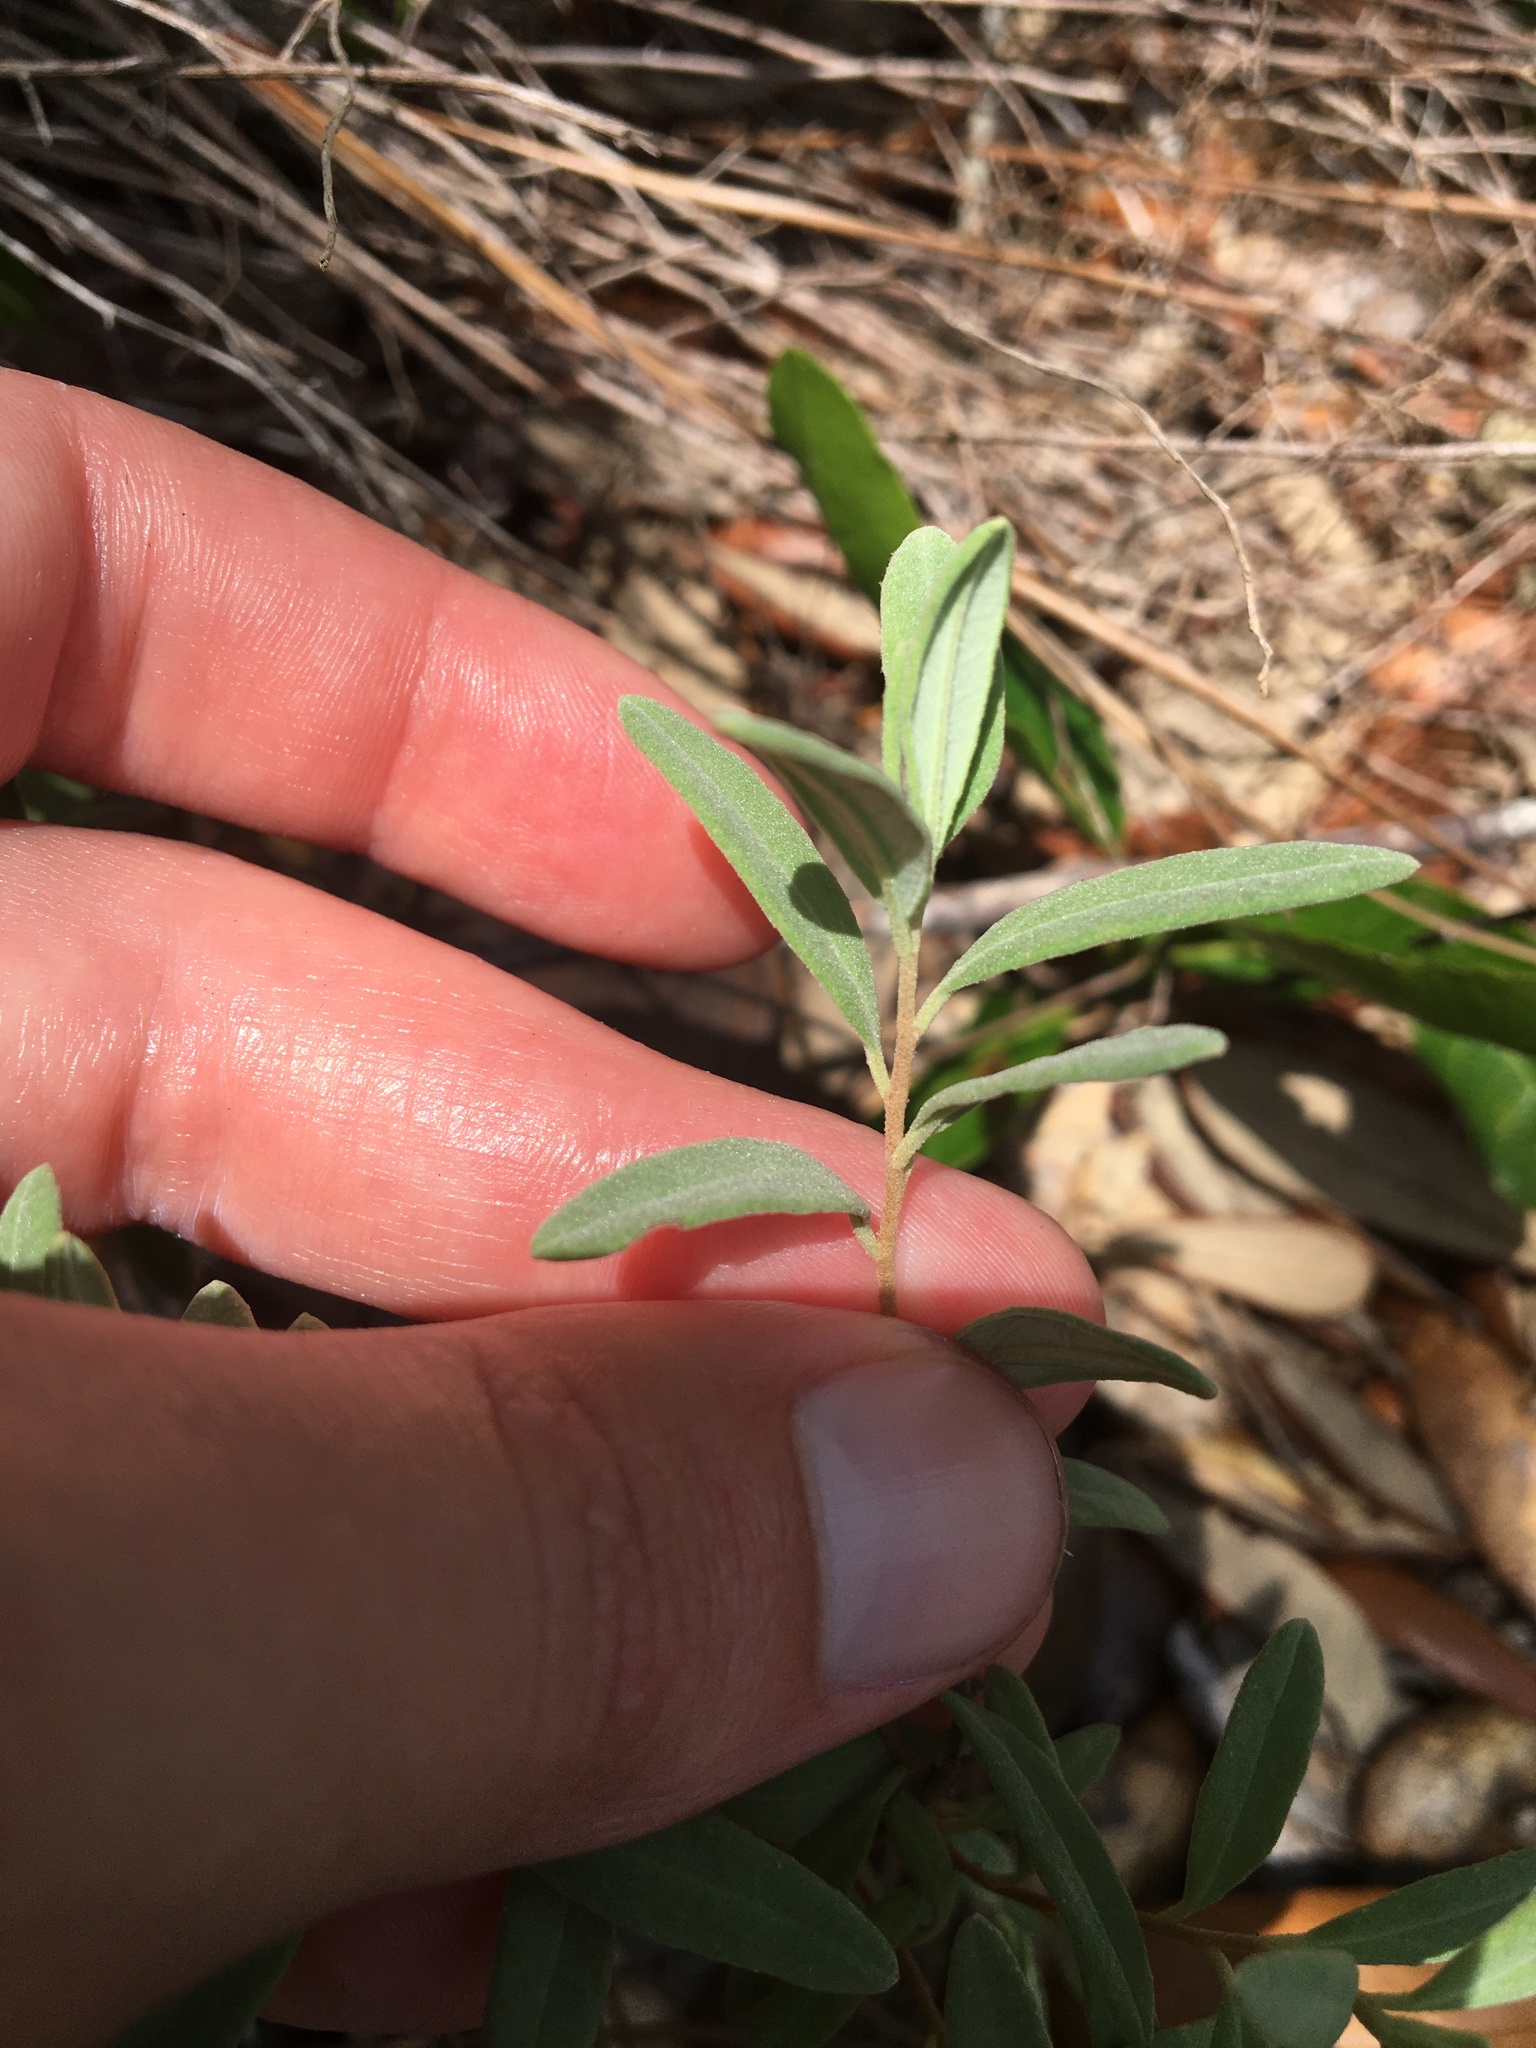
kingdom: Plantae
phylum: Tracheophyta
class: Magnoliopsida
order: Malvales
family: Cistaceae
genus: Crocanthemum
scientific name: Crocanthemum arenicola
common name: Gulf coast frostweed
